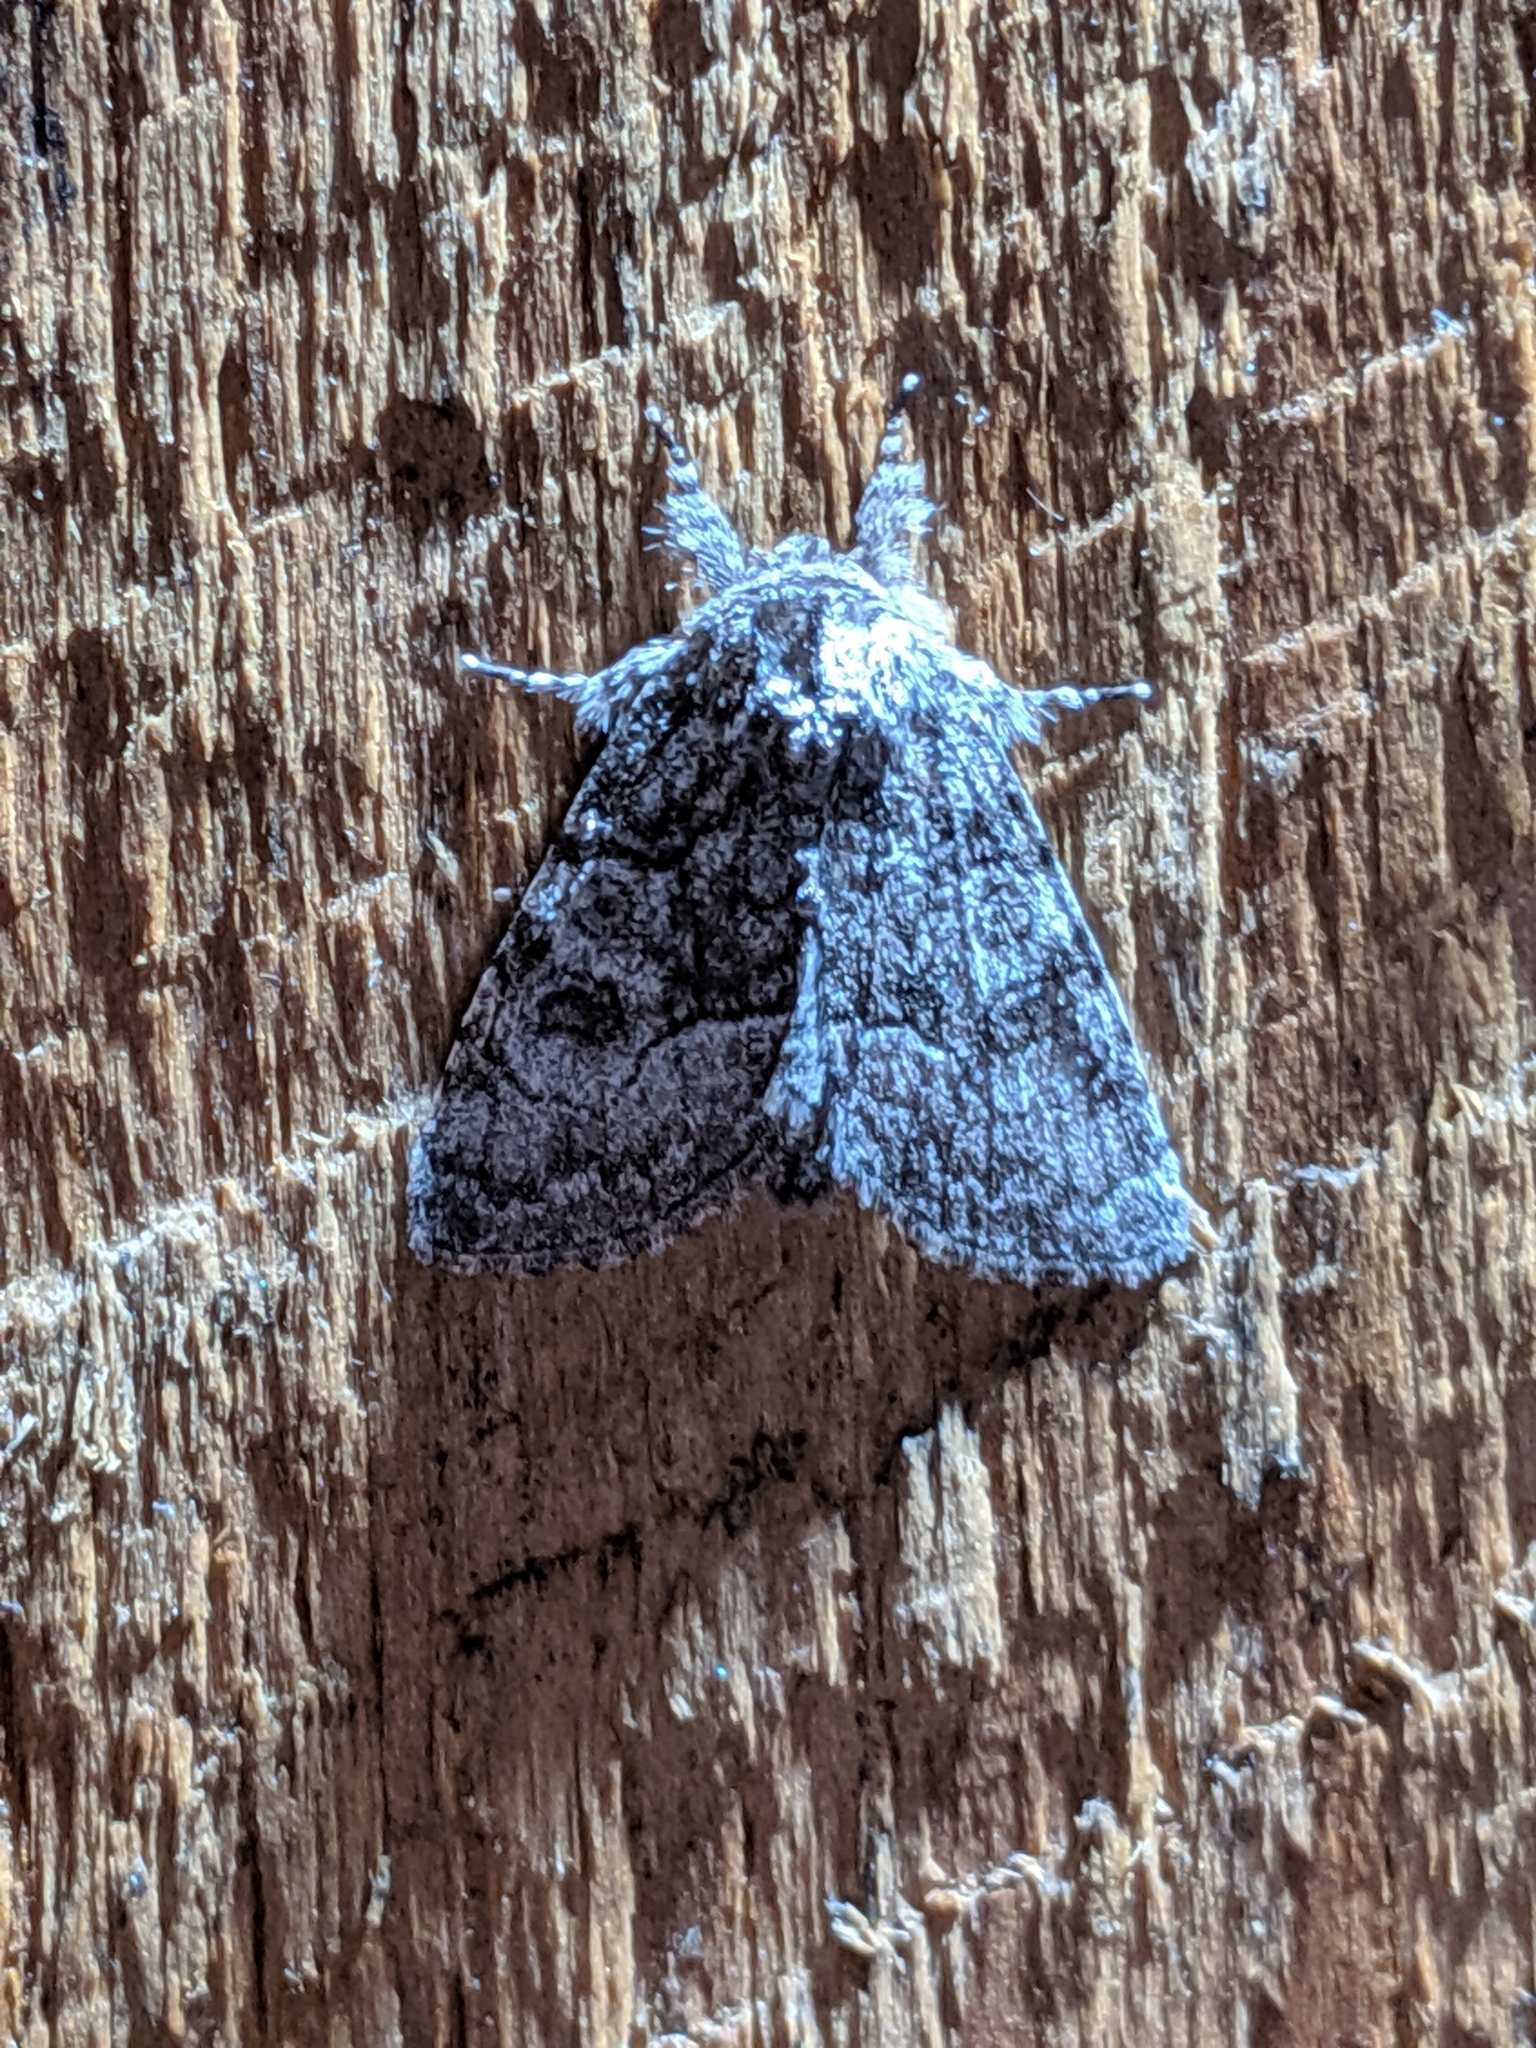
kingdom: Animalia
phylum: Arthropoda
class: Insecta
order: Lepidoptera
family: Noctuidae
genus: Raphia
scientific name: Raphia frater
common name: Brother
